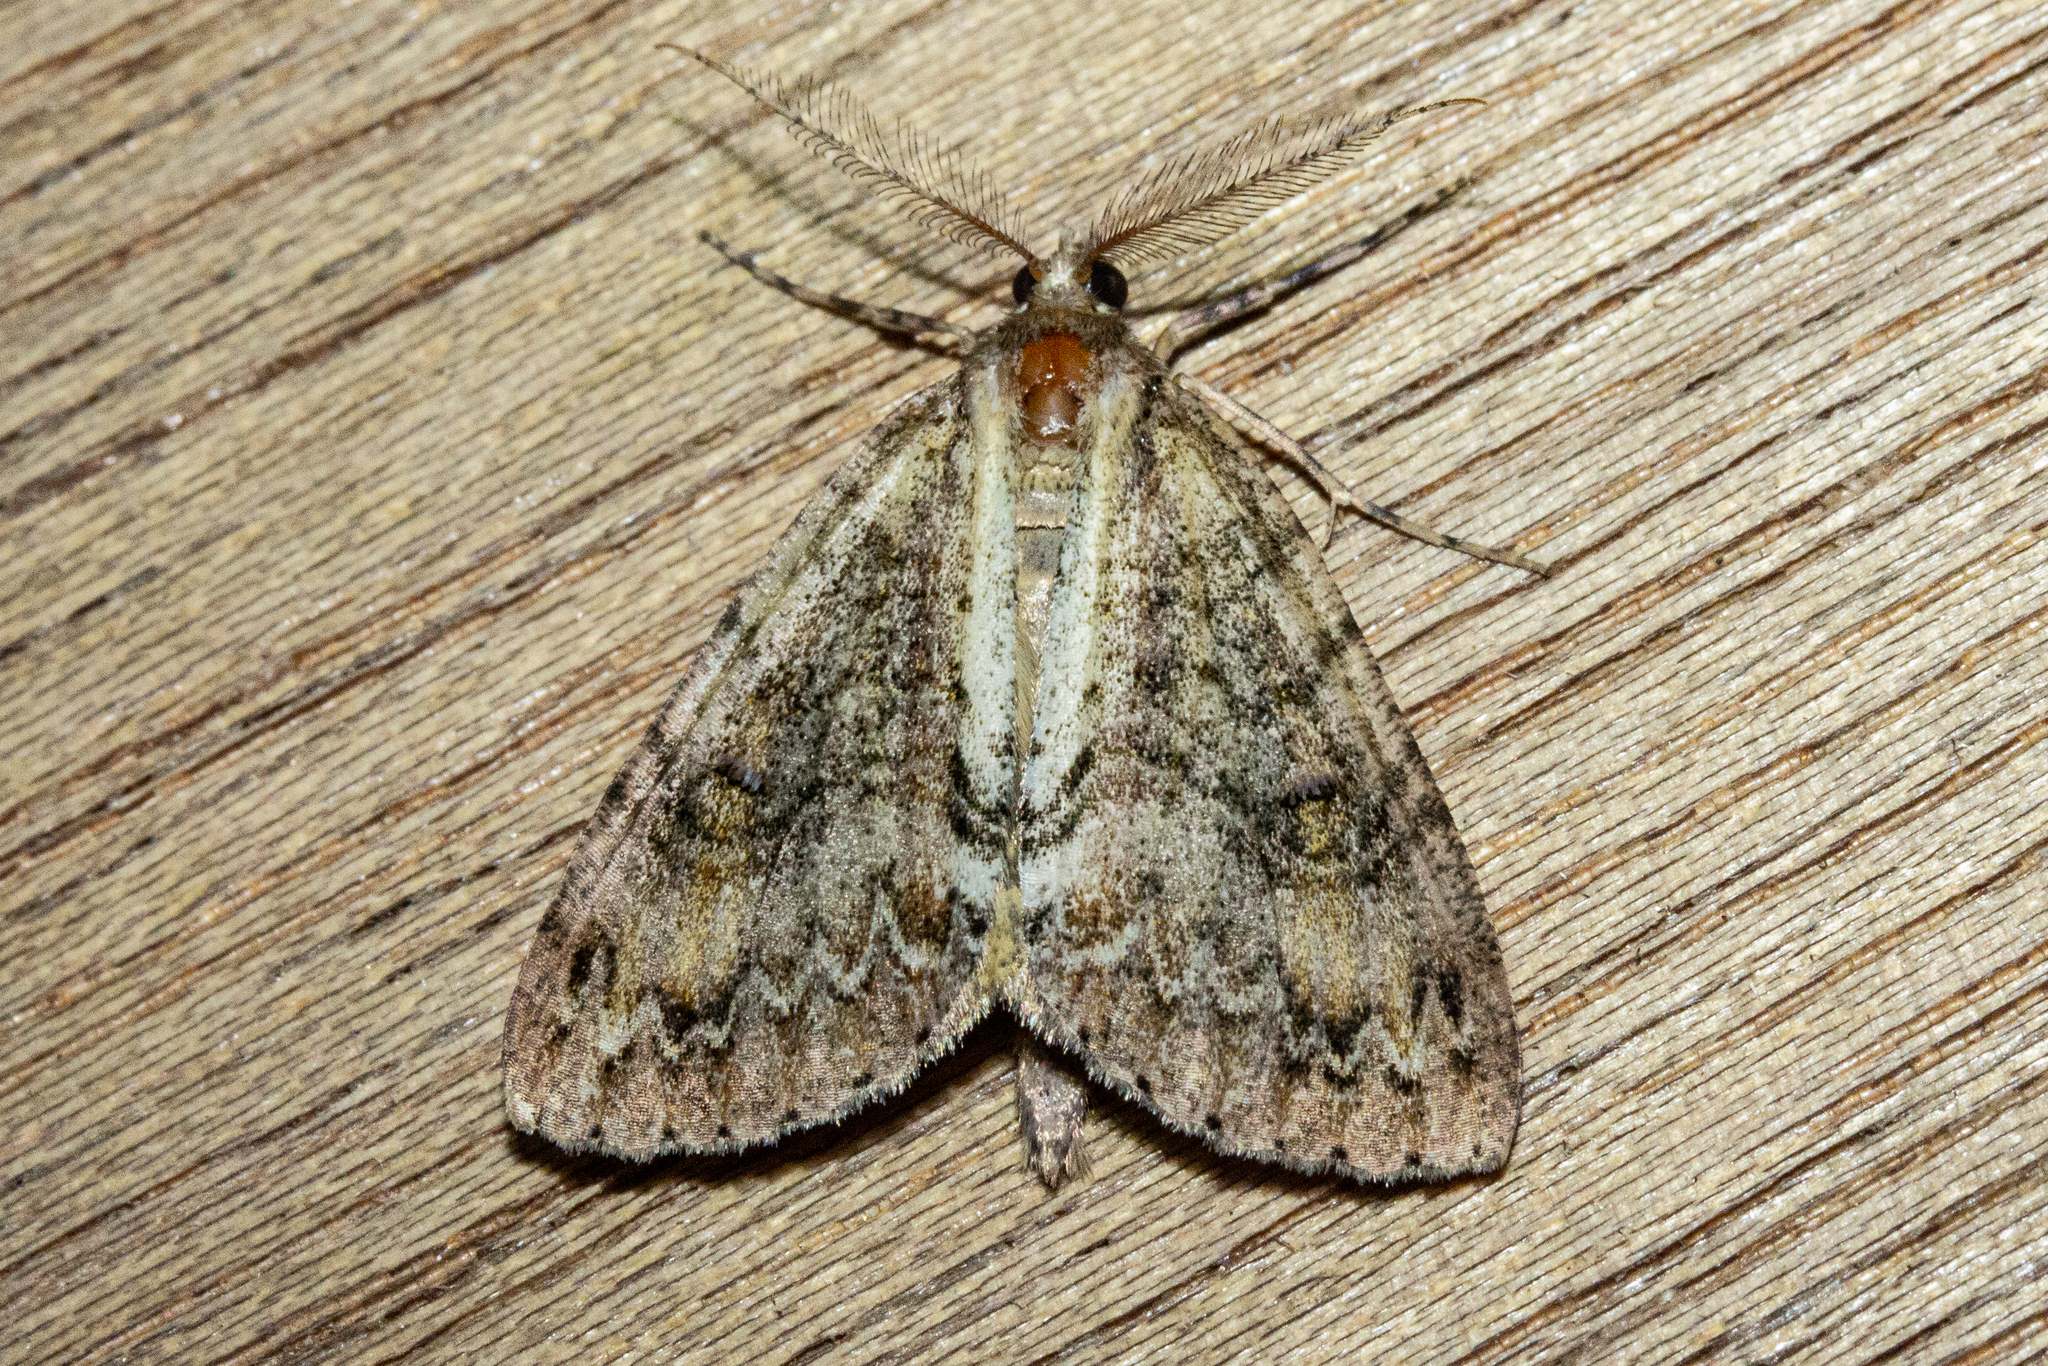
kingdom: Animalia
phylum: Arthropoda
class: Insecta
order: Lepidoptera
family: Geometridae
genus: Pseudocoremia
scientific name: Pseudocoremia suavis
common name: Common forest looper
